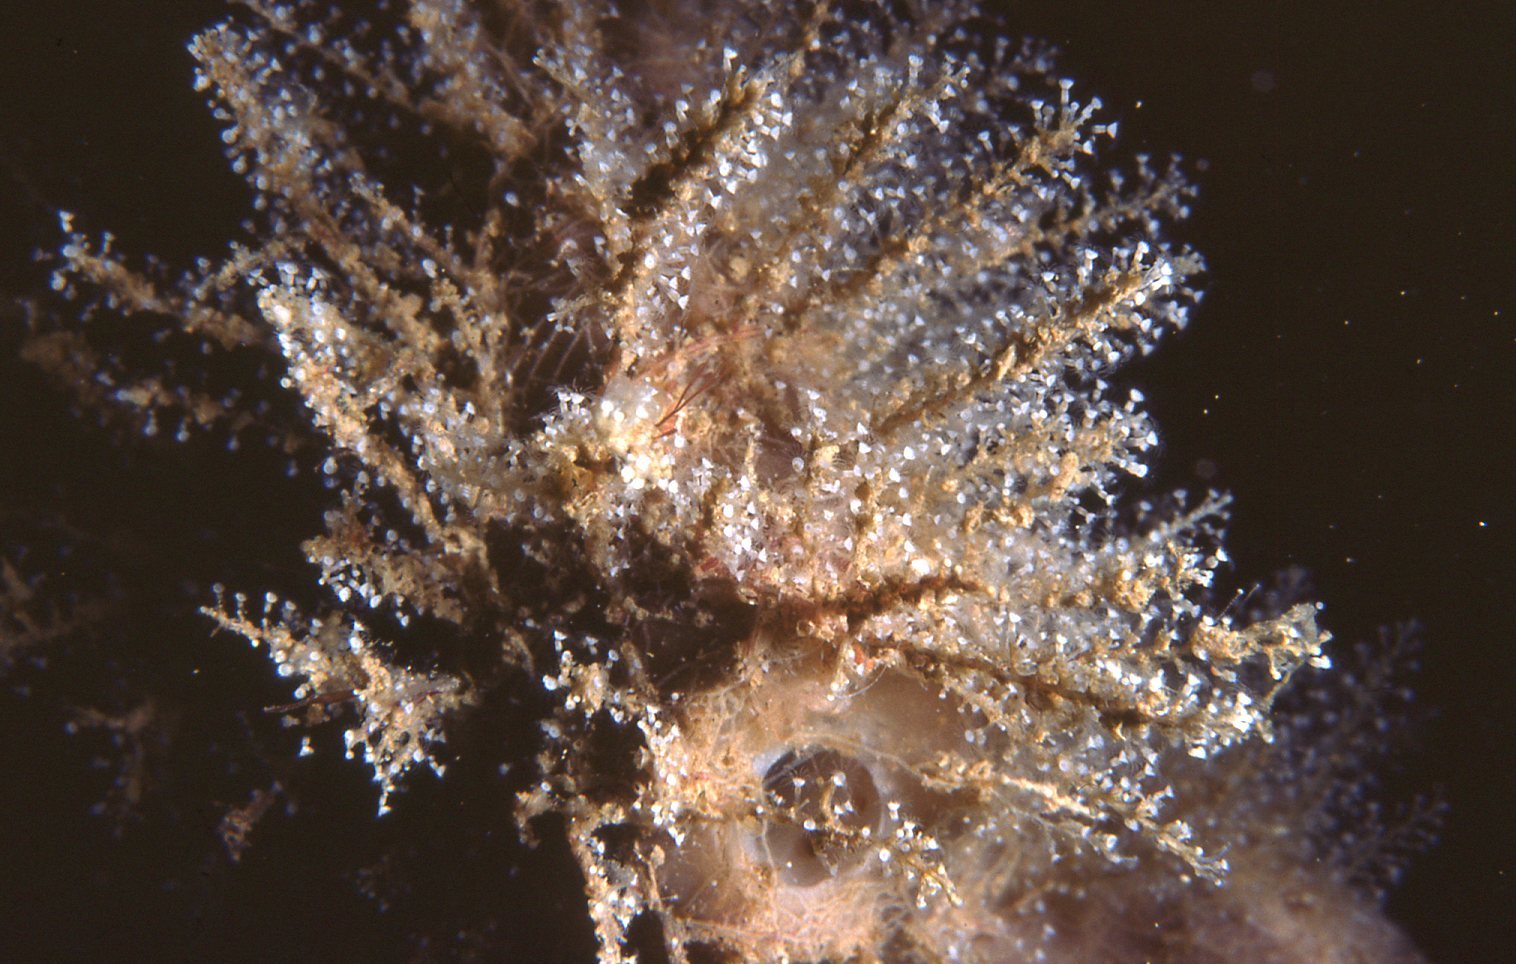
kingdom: Animalia
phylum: Cnidaria
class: Hydrozoa
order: Leptothecata
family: Phylactothecidae
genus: Hydrodendron
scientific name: Hydrodendron australe
